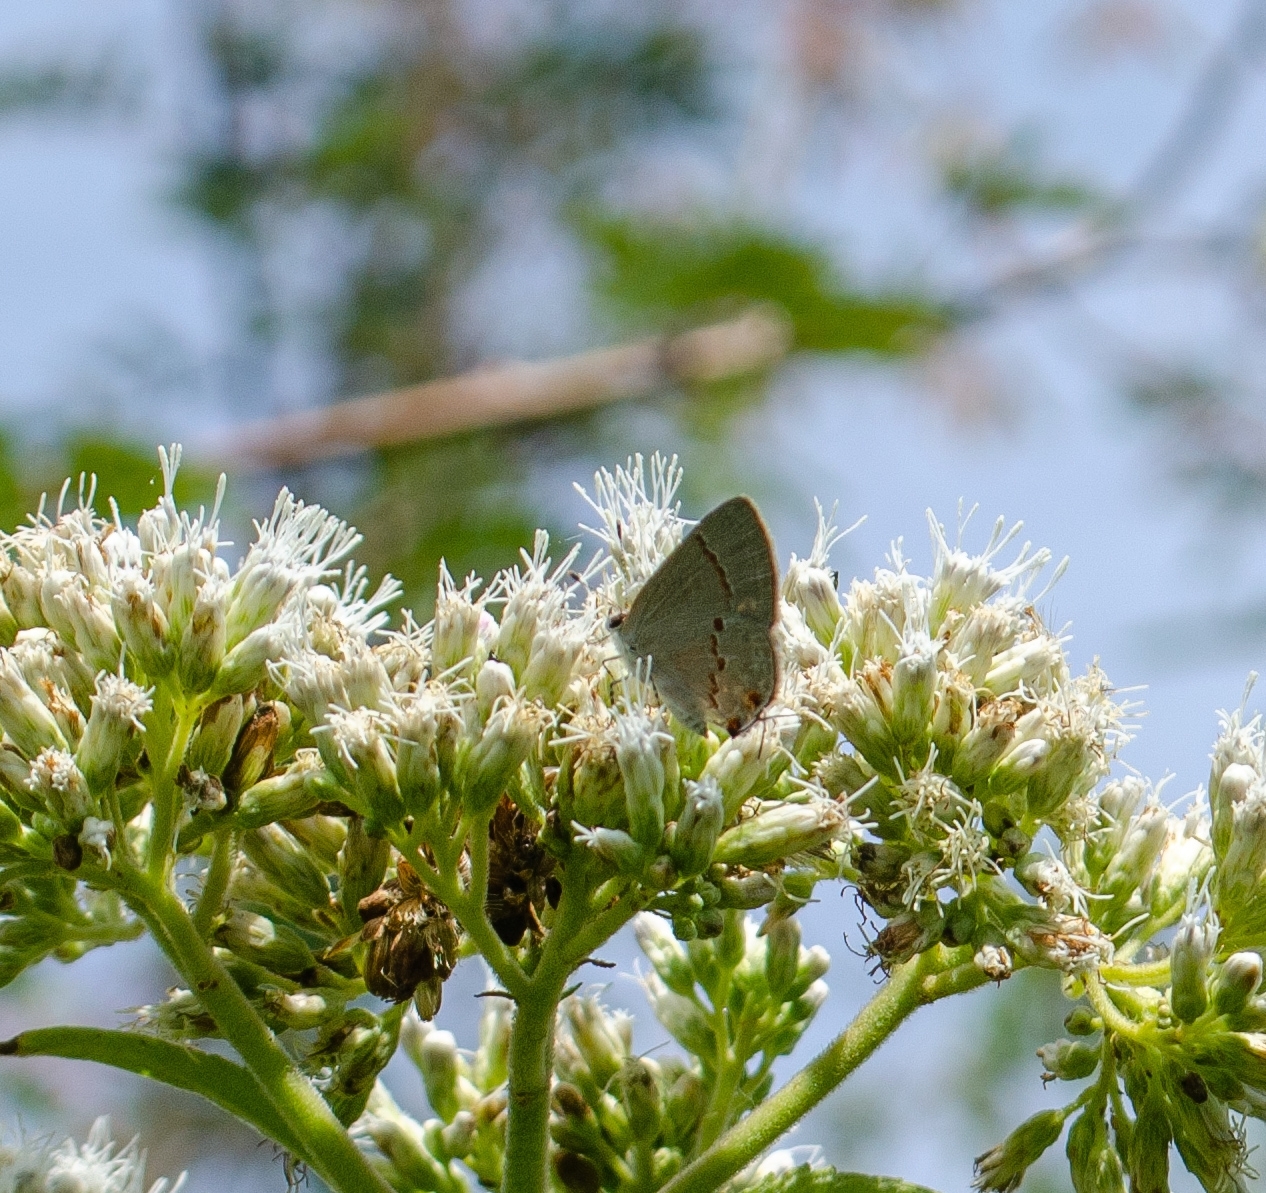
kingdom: Animalia
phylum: Arthropoda
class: Insecta
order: Lepidoptera
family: Lycaenidae
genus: Thecla
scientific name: Thecla azia
